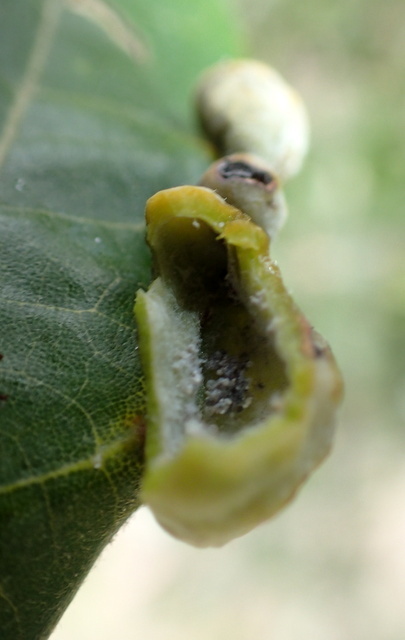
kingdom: Animalia
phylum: Arthropoda
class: Insecta
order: Hemiptera
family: Triozidae
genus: Trioza
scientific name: Trioza magnoliae
